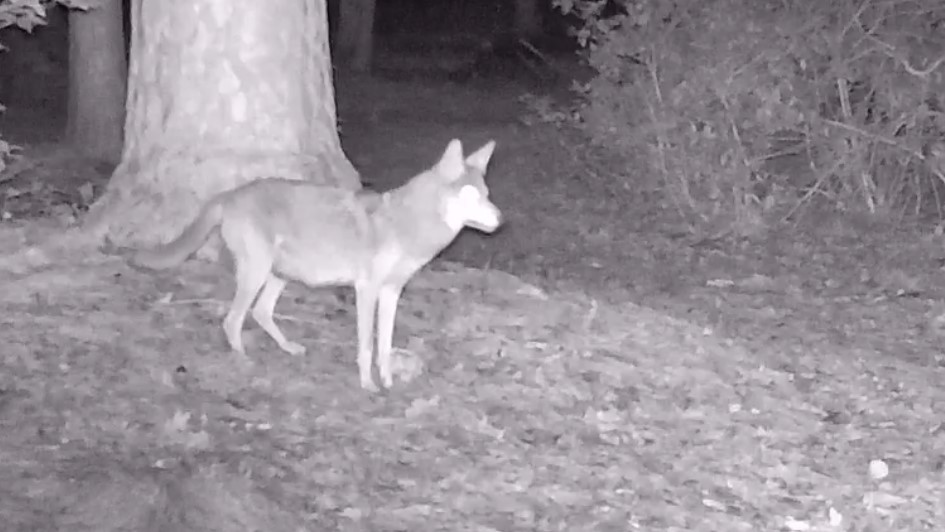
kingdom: Animalia
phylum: Chordata
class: Mammalia
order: Carnivora
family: Canidae
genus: Canis
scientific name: Canis latrans
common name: Coyote
